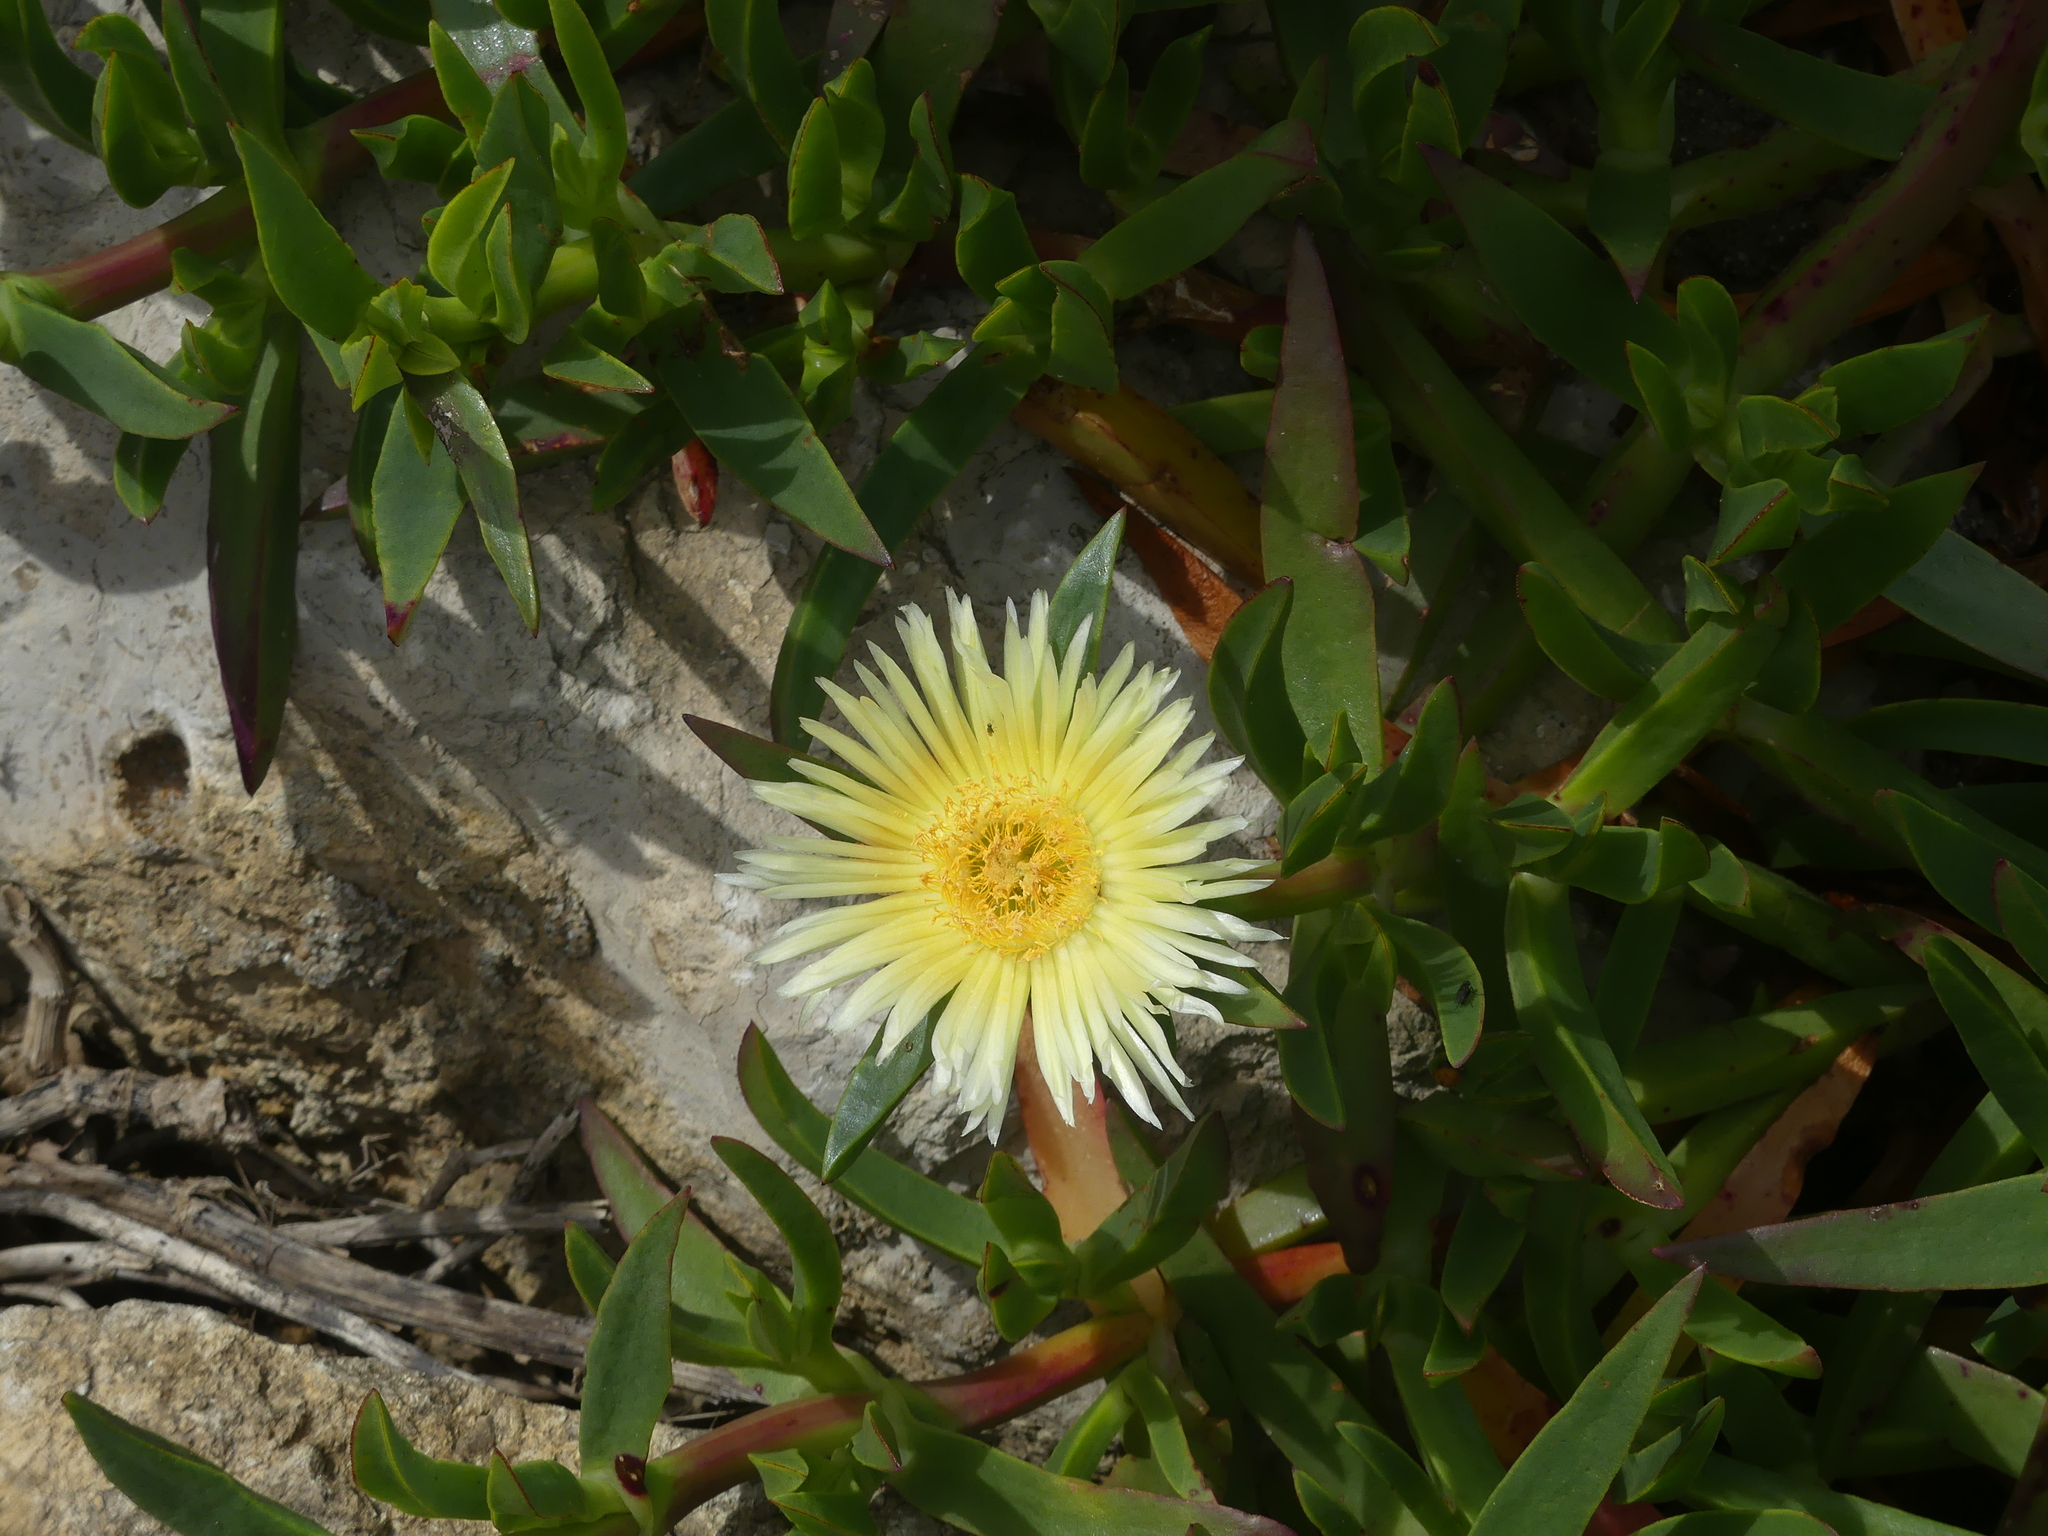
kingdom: Plantae
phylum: Tracheophyta
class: Magnoliopsida
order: Caryophyllales
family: Aizoaceae
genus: Carpobrotus
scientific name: Carpobrotus edulis
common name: Hottentot-fig
